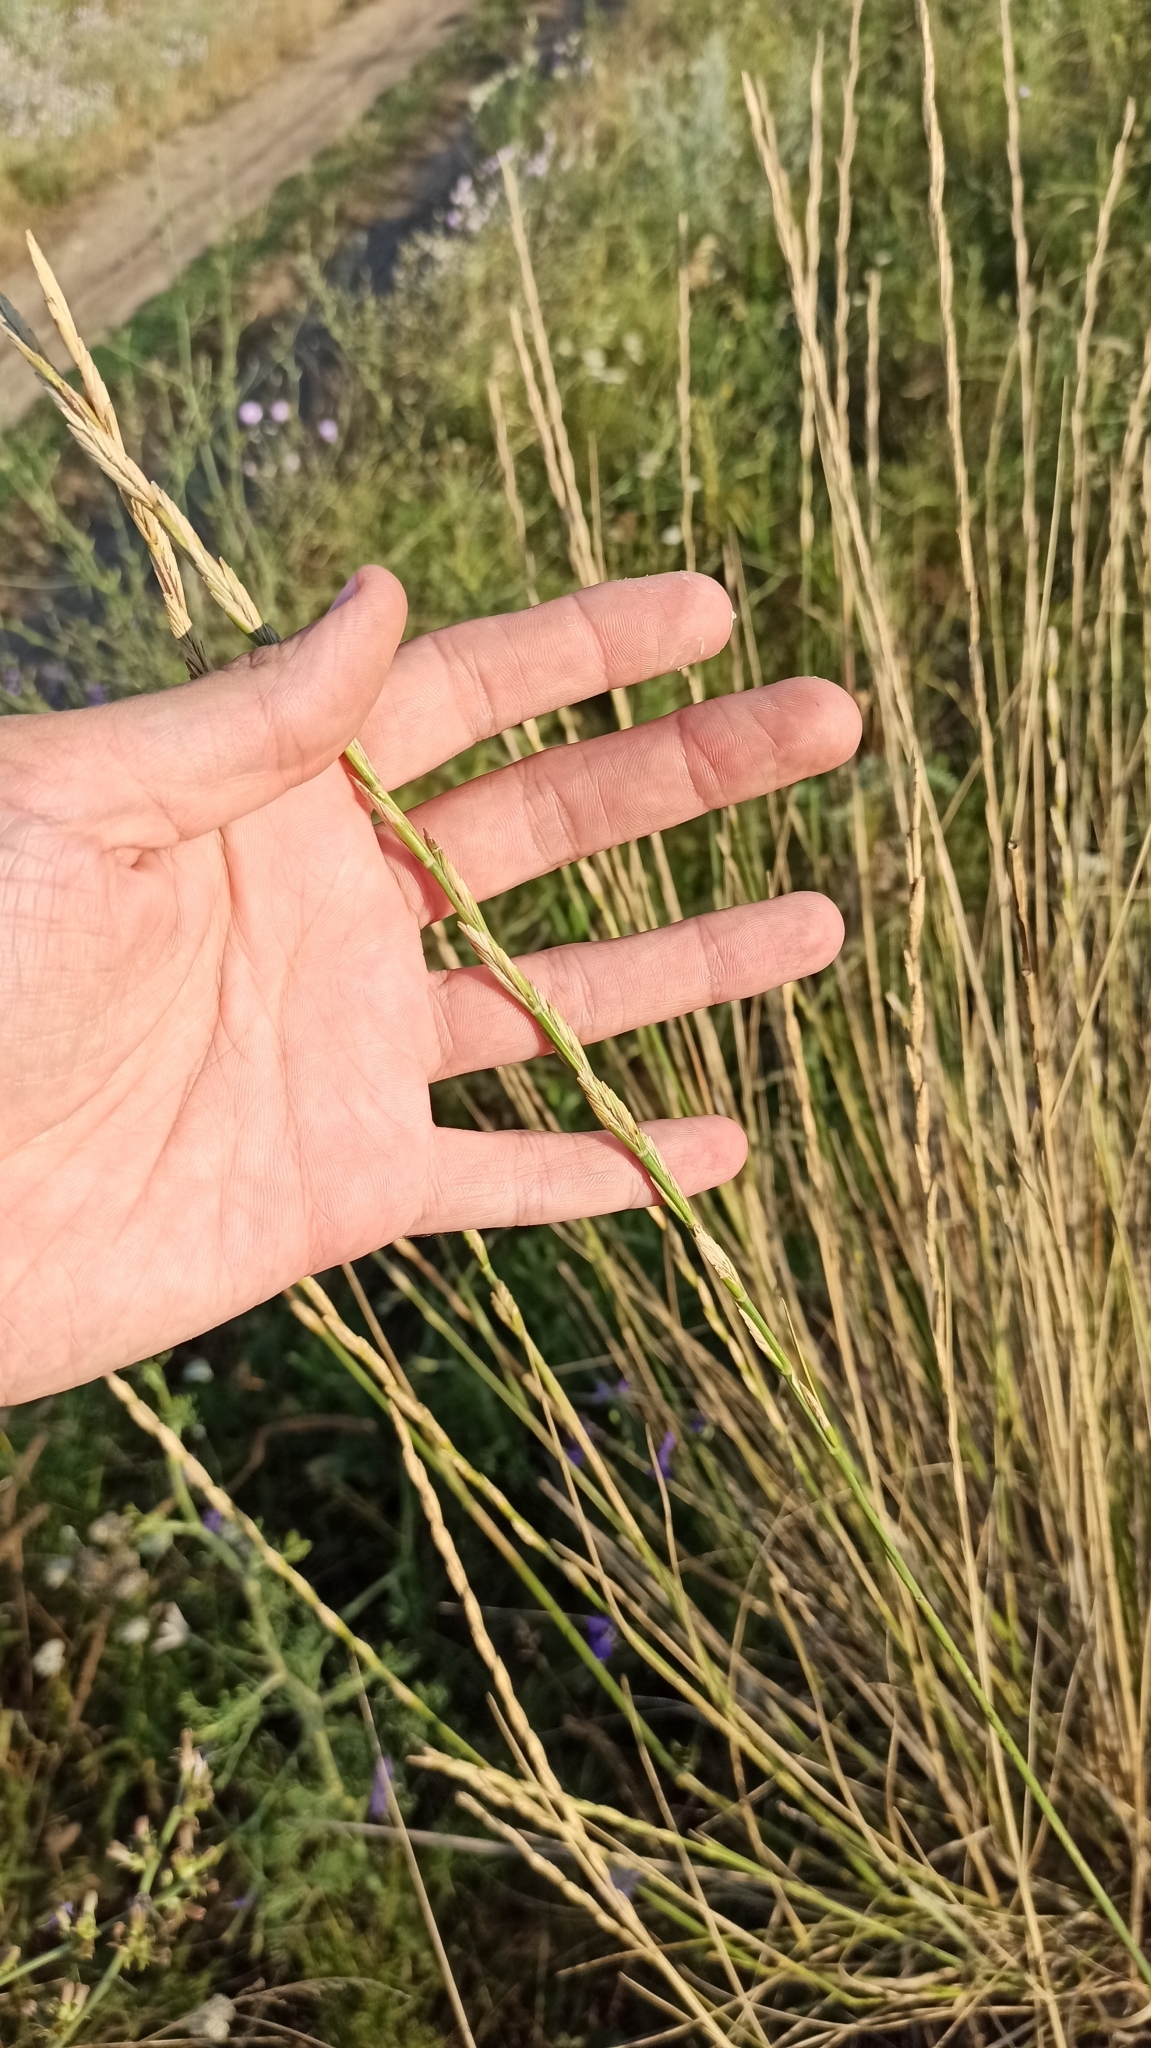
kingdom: Plantae
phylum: Tracheophyta
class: Liliopsida
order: Poales
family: Poaceae
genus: Thinopyrum
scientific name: Thinopyrum obtusiflorum
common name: Eurasian quackgrass
